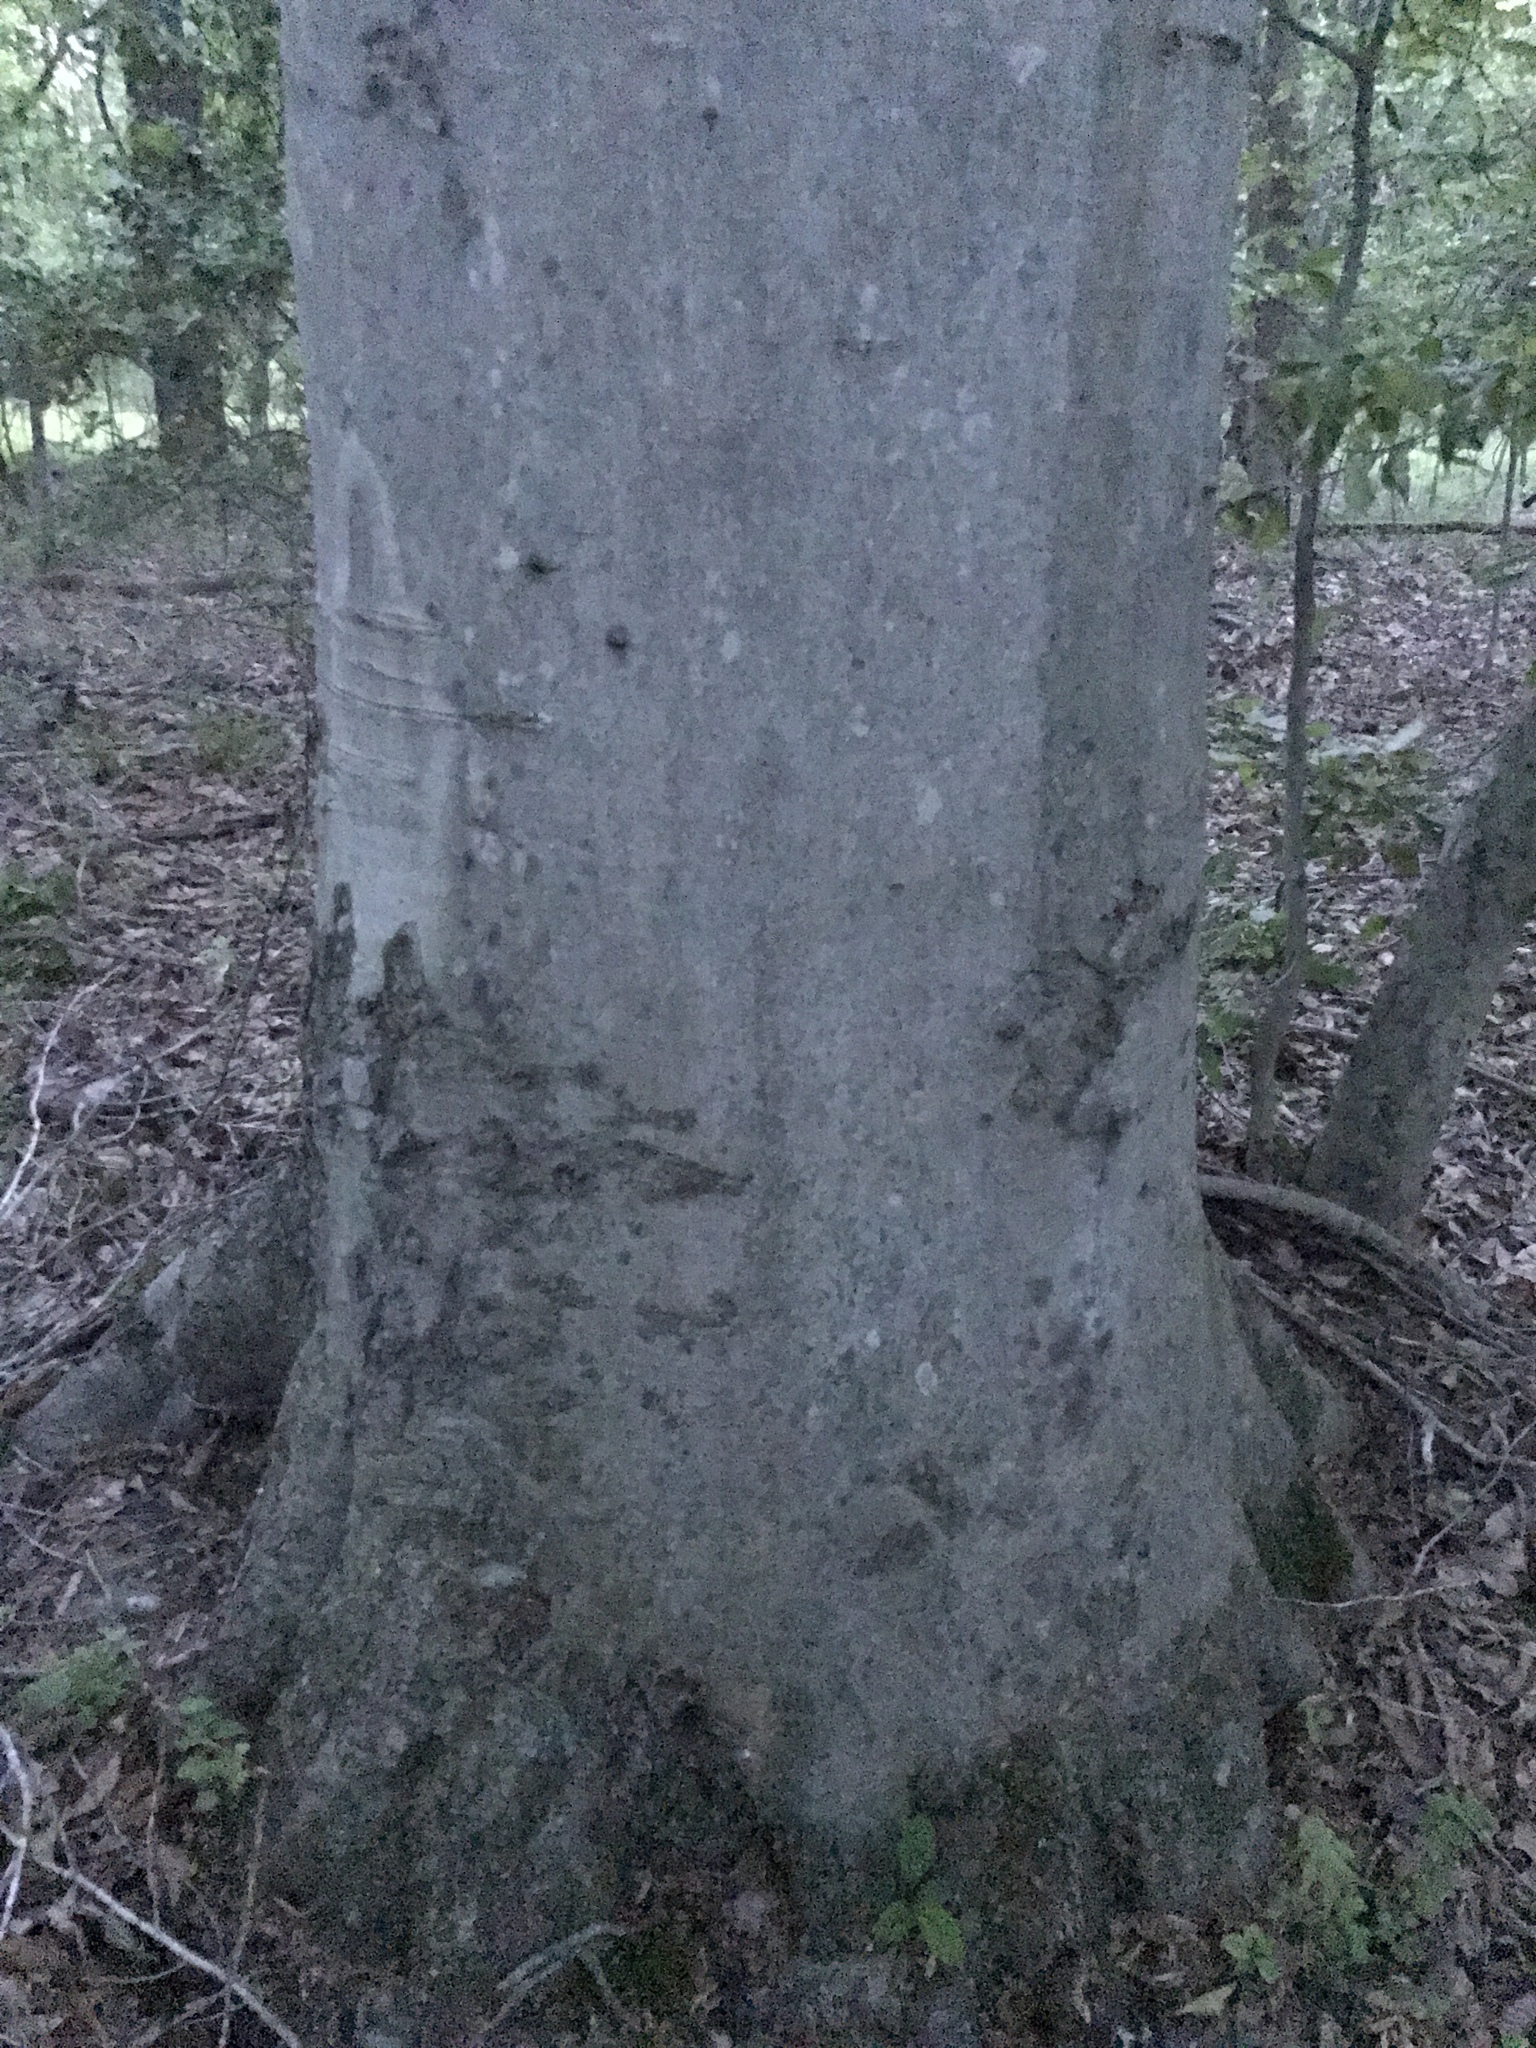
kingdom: Plantae
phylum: Tracheophyta
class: Magnoliopsida
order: Fagales
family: Fagaceae
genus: Fagus
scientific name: Fagus grandifolia
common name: American beech
